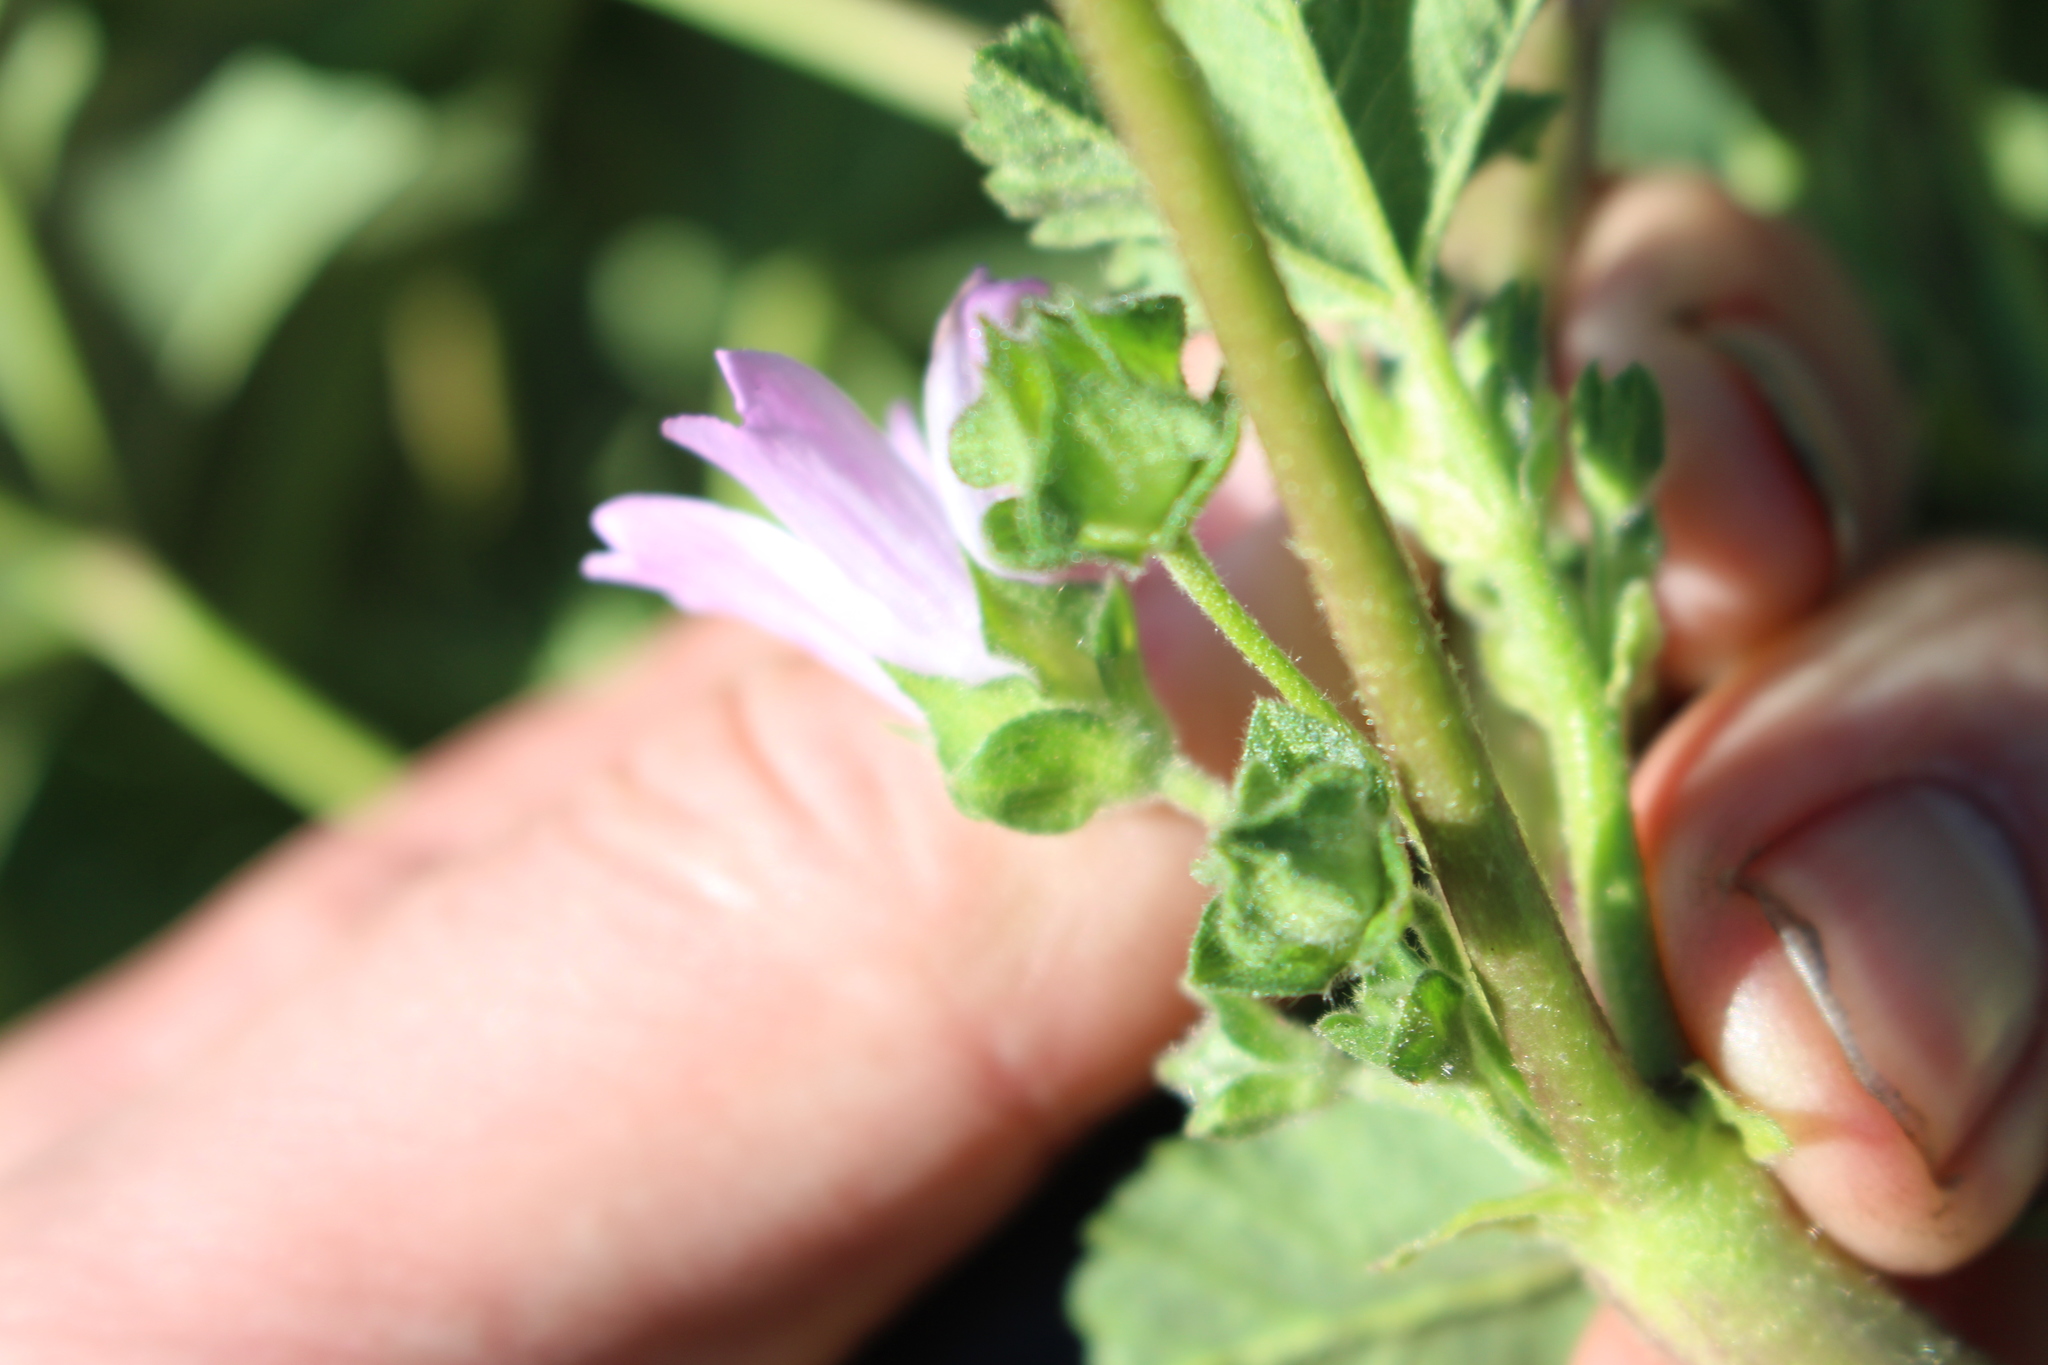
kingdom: Plantae
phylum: Tracheophyta
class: Magnoliopsida
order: Malvales
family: Malvaceae
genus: Malva
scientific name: Malva multiflora
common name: Cheeseweed
